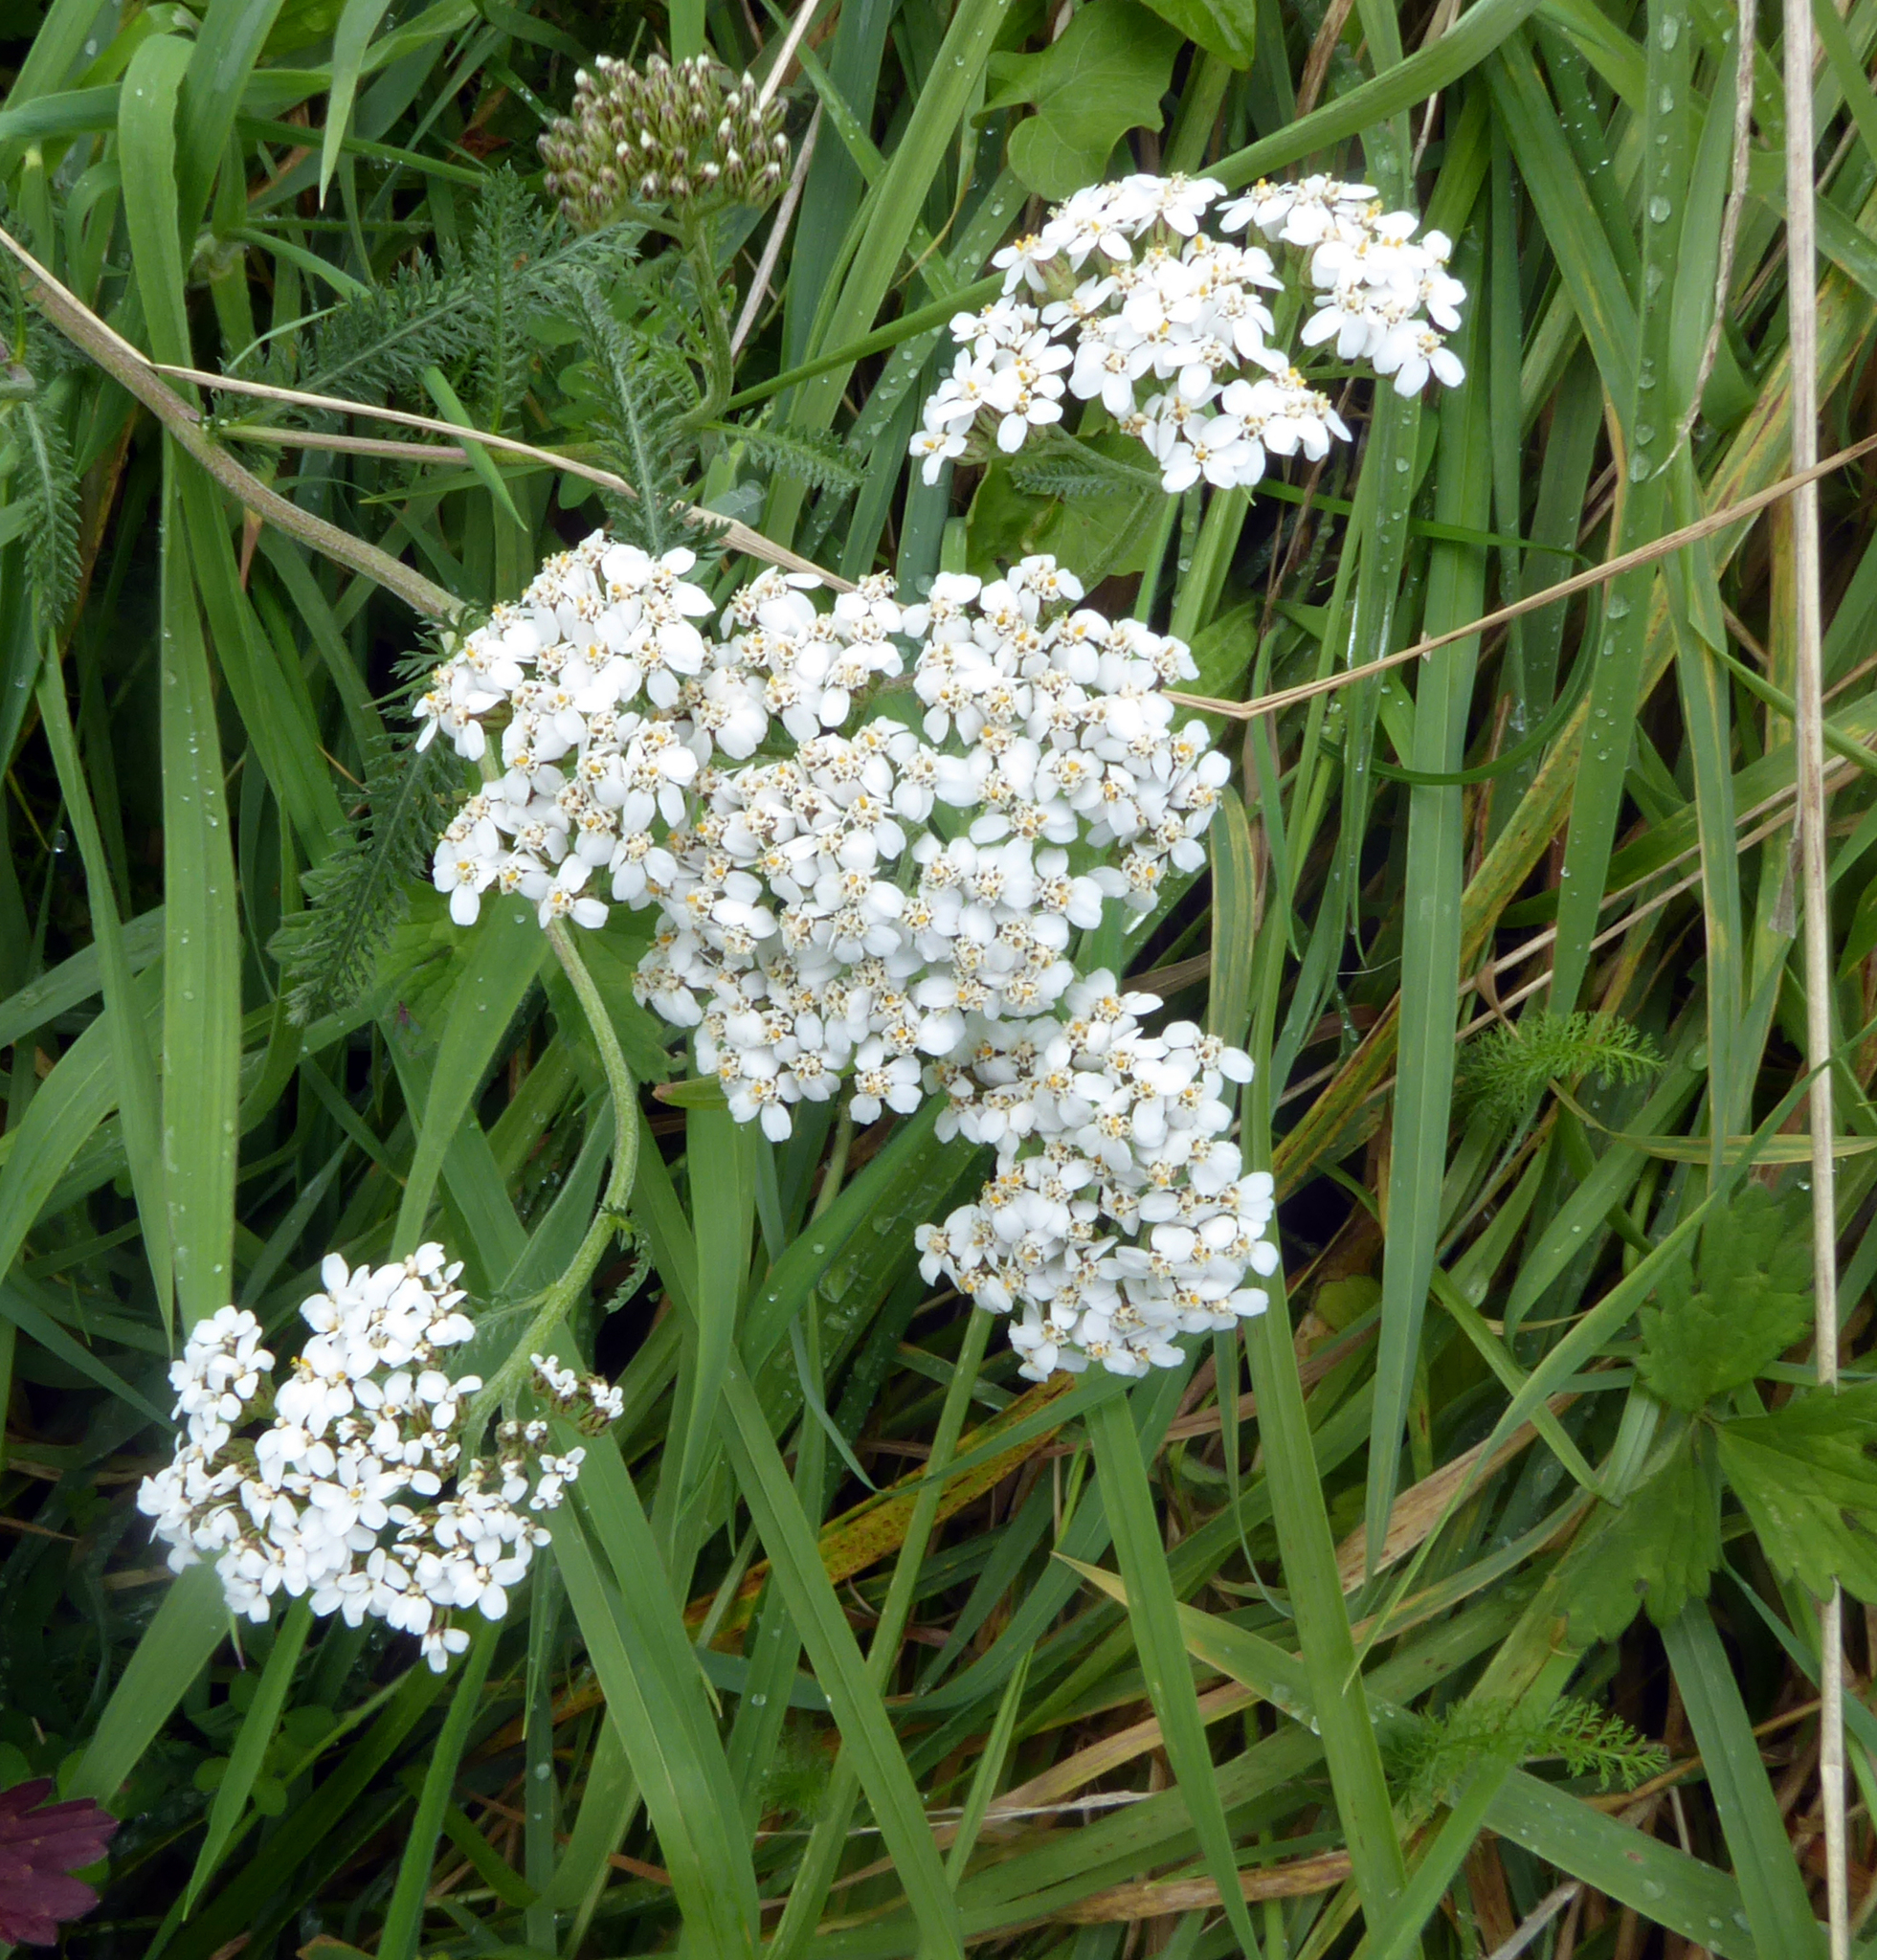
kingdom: Plantae
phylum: Tracheophyta
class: Magnoliopsida
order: Asterales
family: Asteraceae
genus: Achillea
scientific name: Achillea millefolium
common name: Yarrow
